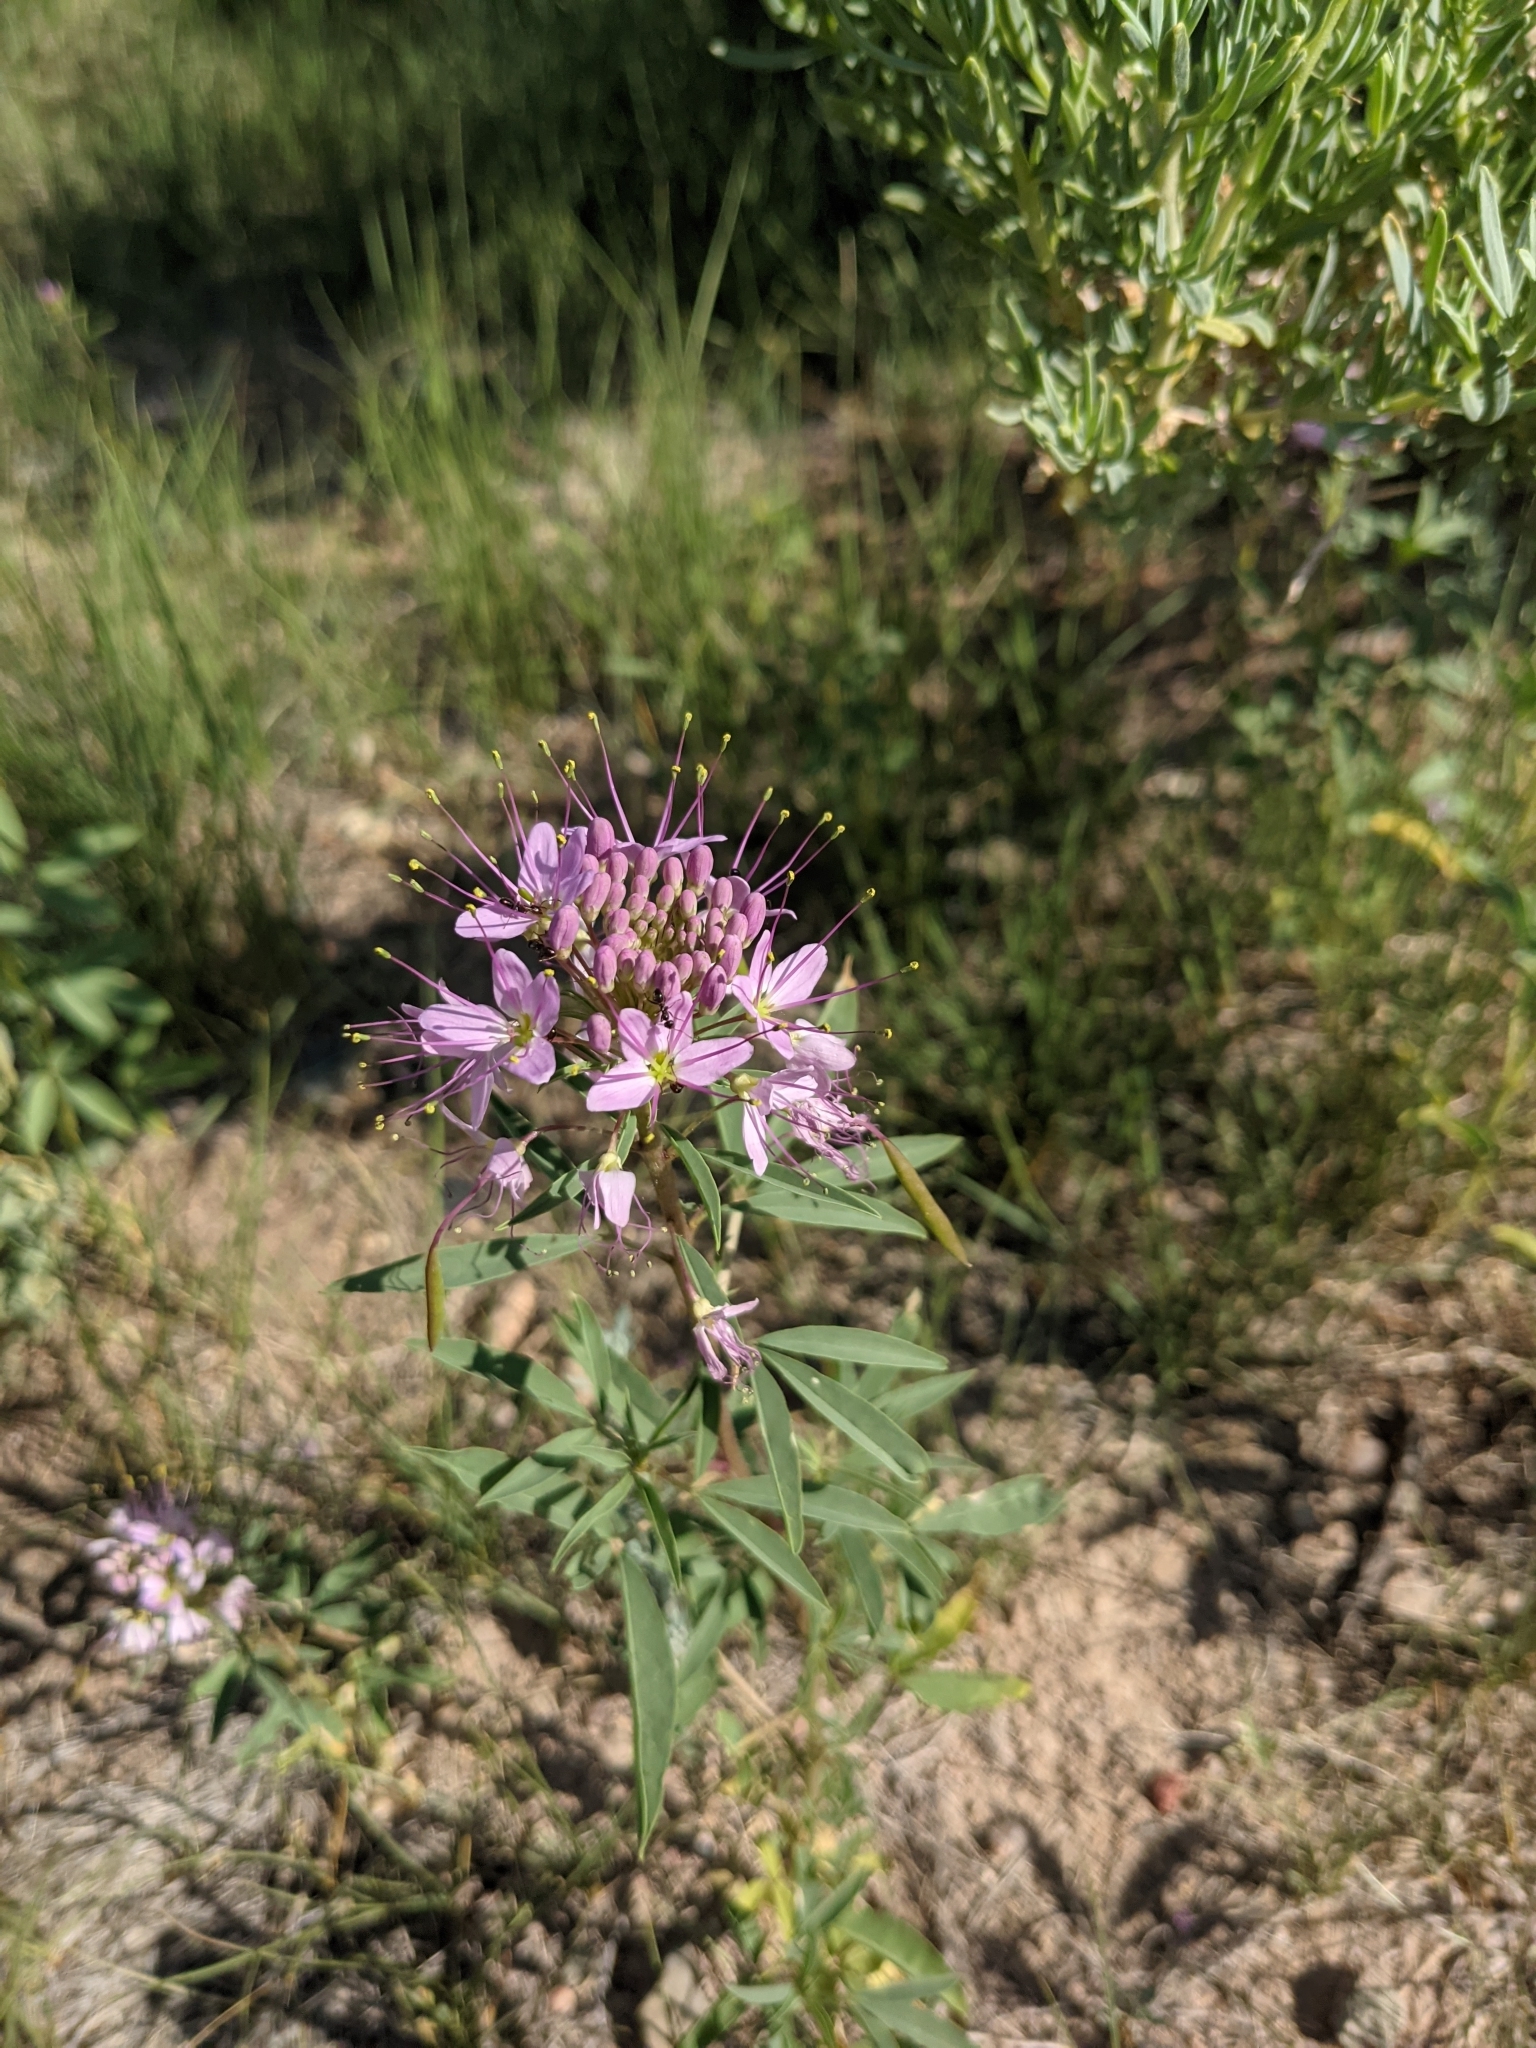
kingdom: Plantae
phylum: Tracheophyta
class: Magnoliopsida
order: Brassicales
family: Cleomaceae
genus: Cleomella
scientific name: Cleomella serrulata
